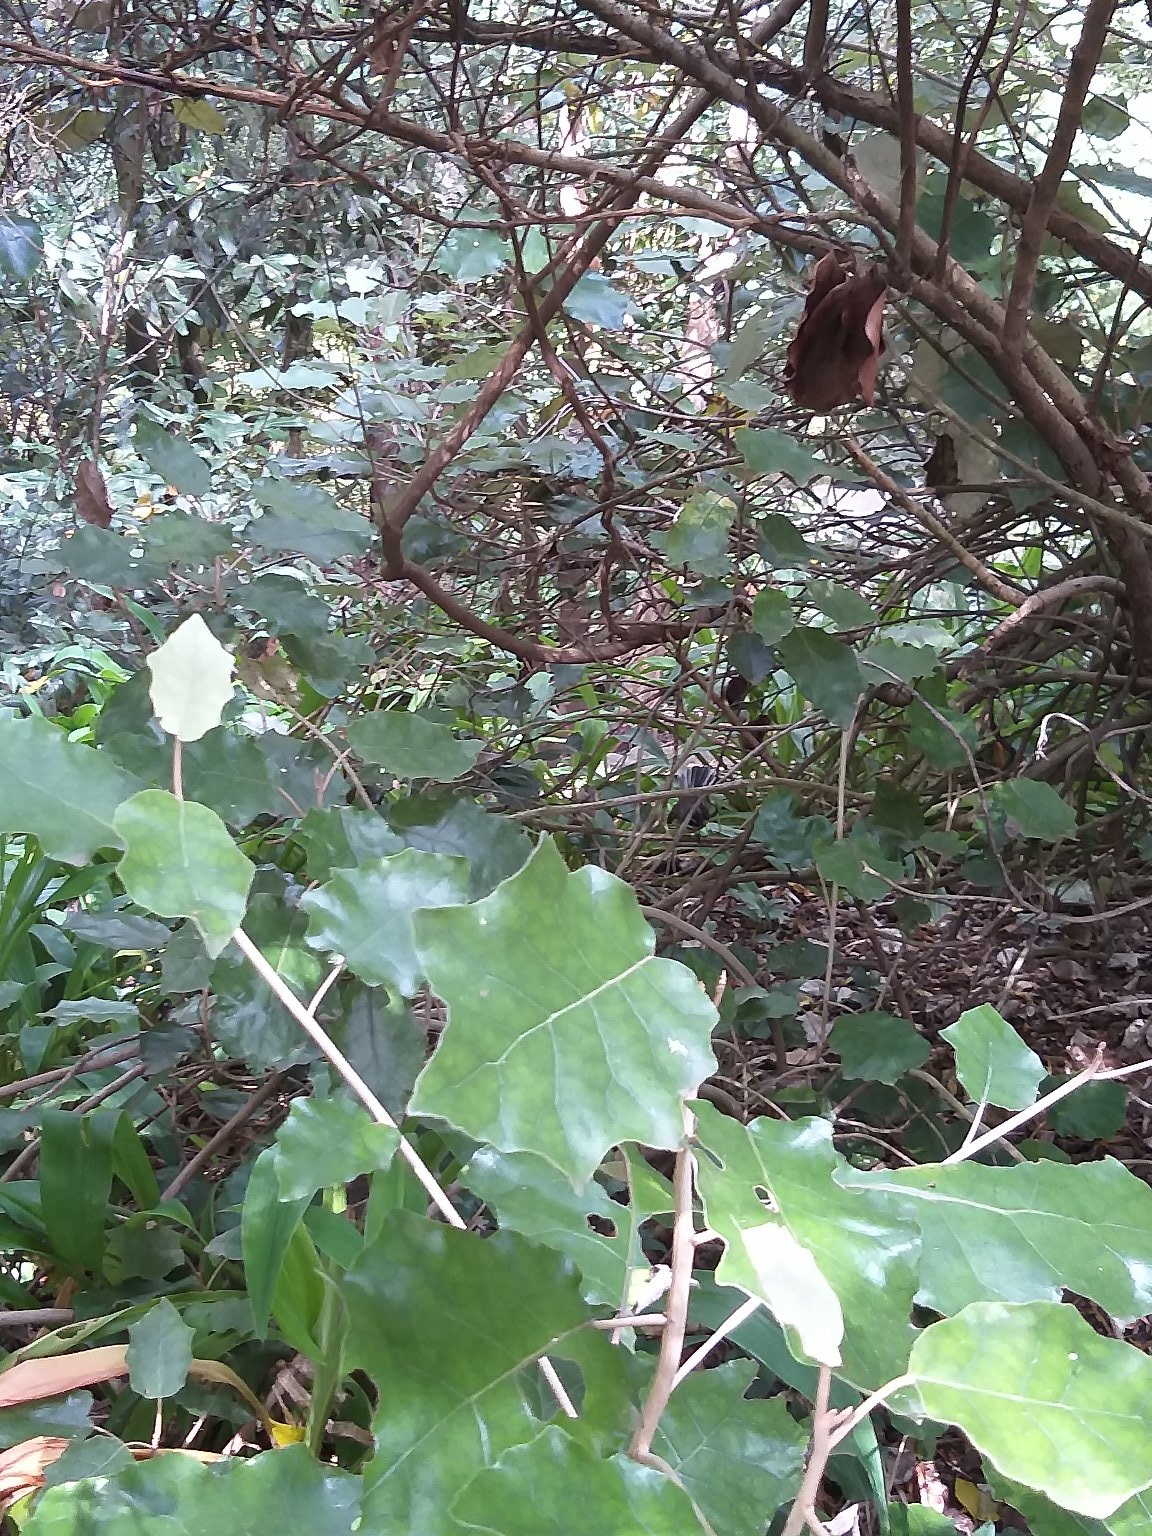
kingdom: Plantae
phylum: Tracheophyta
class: Magnoliopsida
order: Asterales
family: Asteraceae
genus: Brachyglottis
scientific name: Brachyglottis repanda
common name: Hedge ragwort
